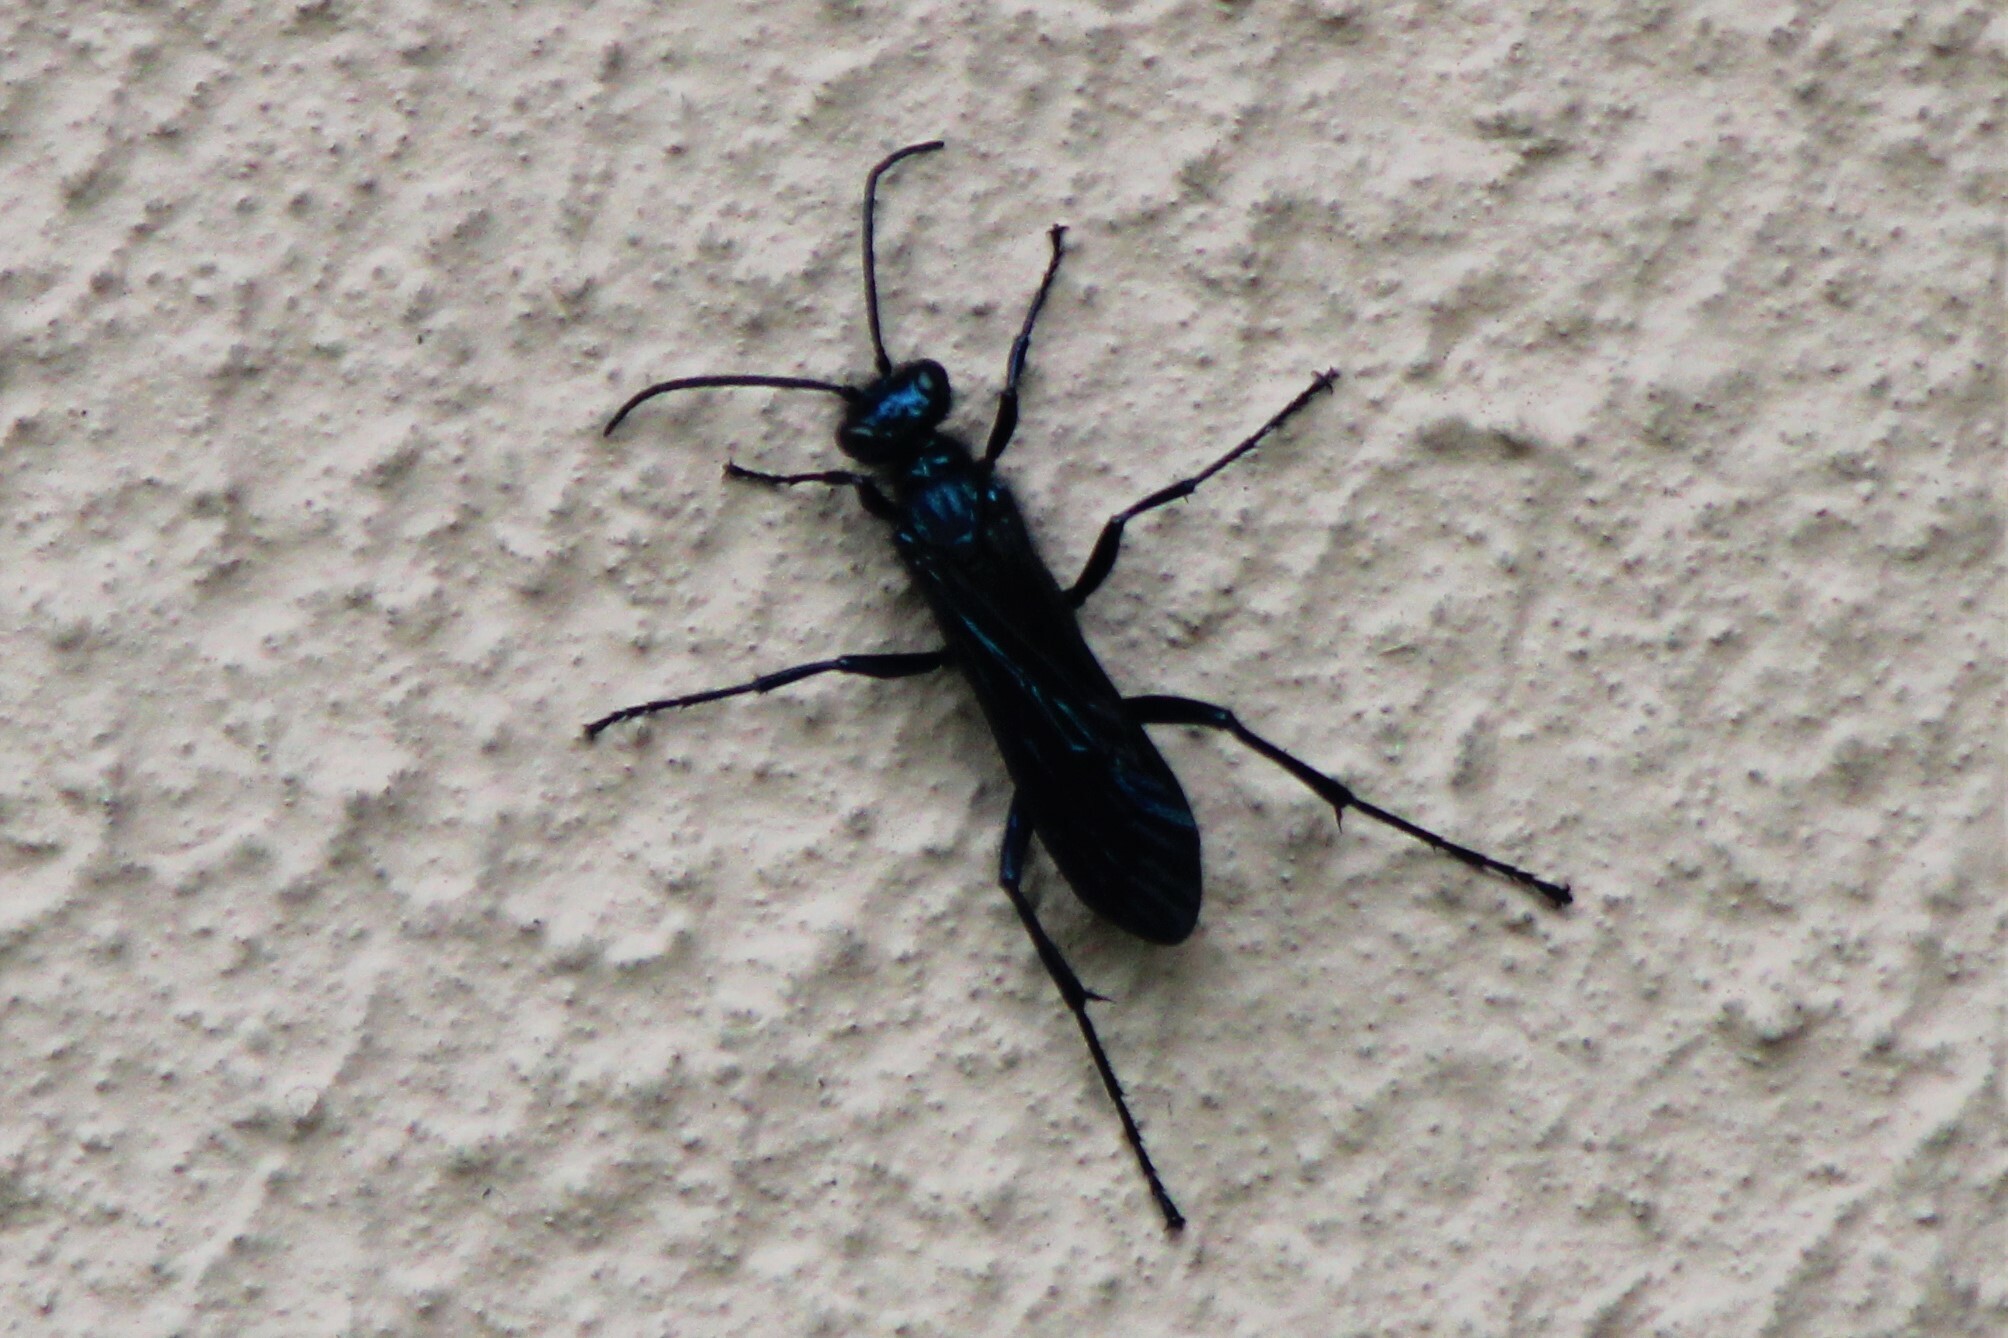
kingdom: Animalia
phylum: Arthropoda
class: Insecta
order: Hymenoptera
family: Sphecidae
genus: Chalybion
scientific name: Chalybion californicum
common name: Mud dauber
